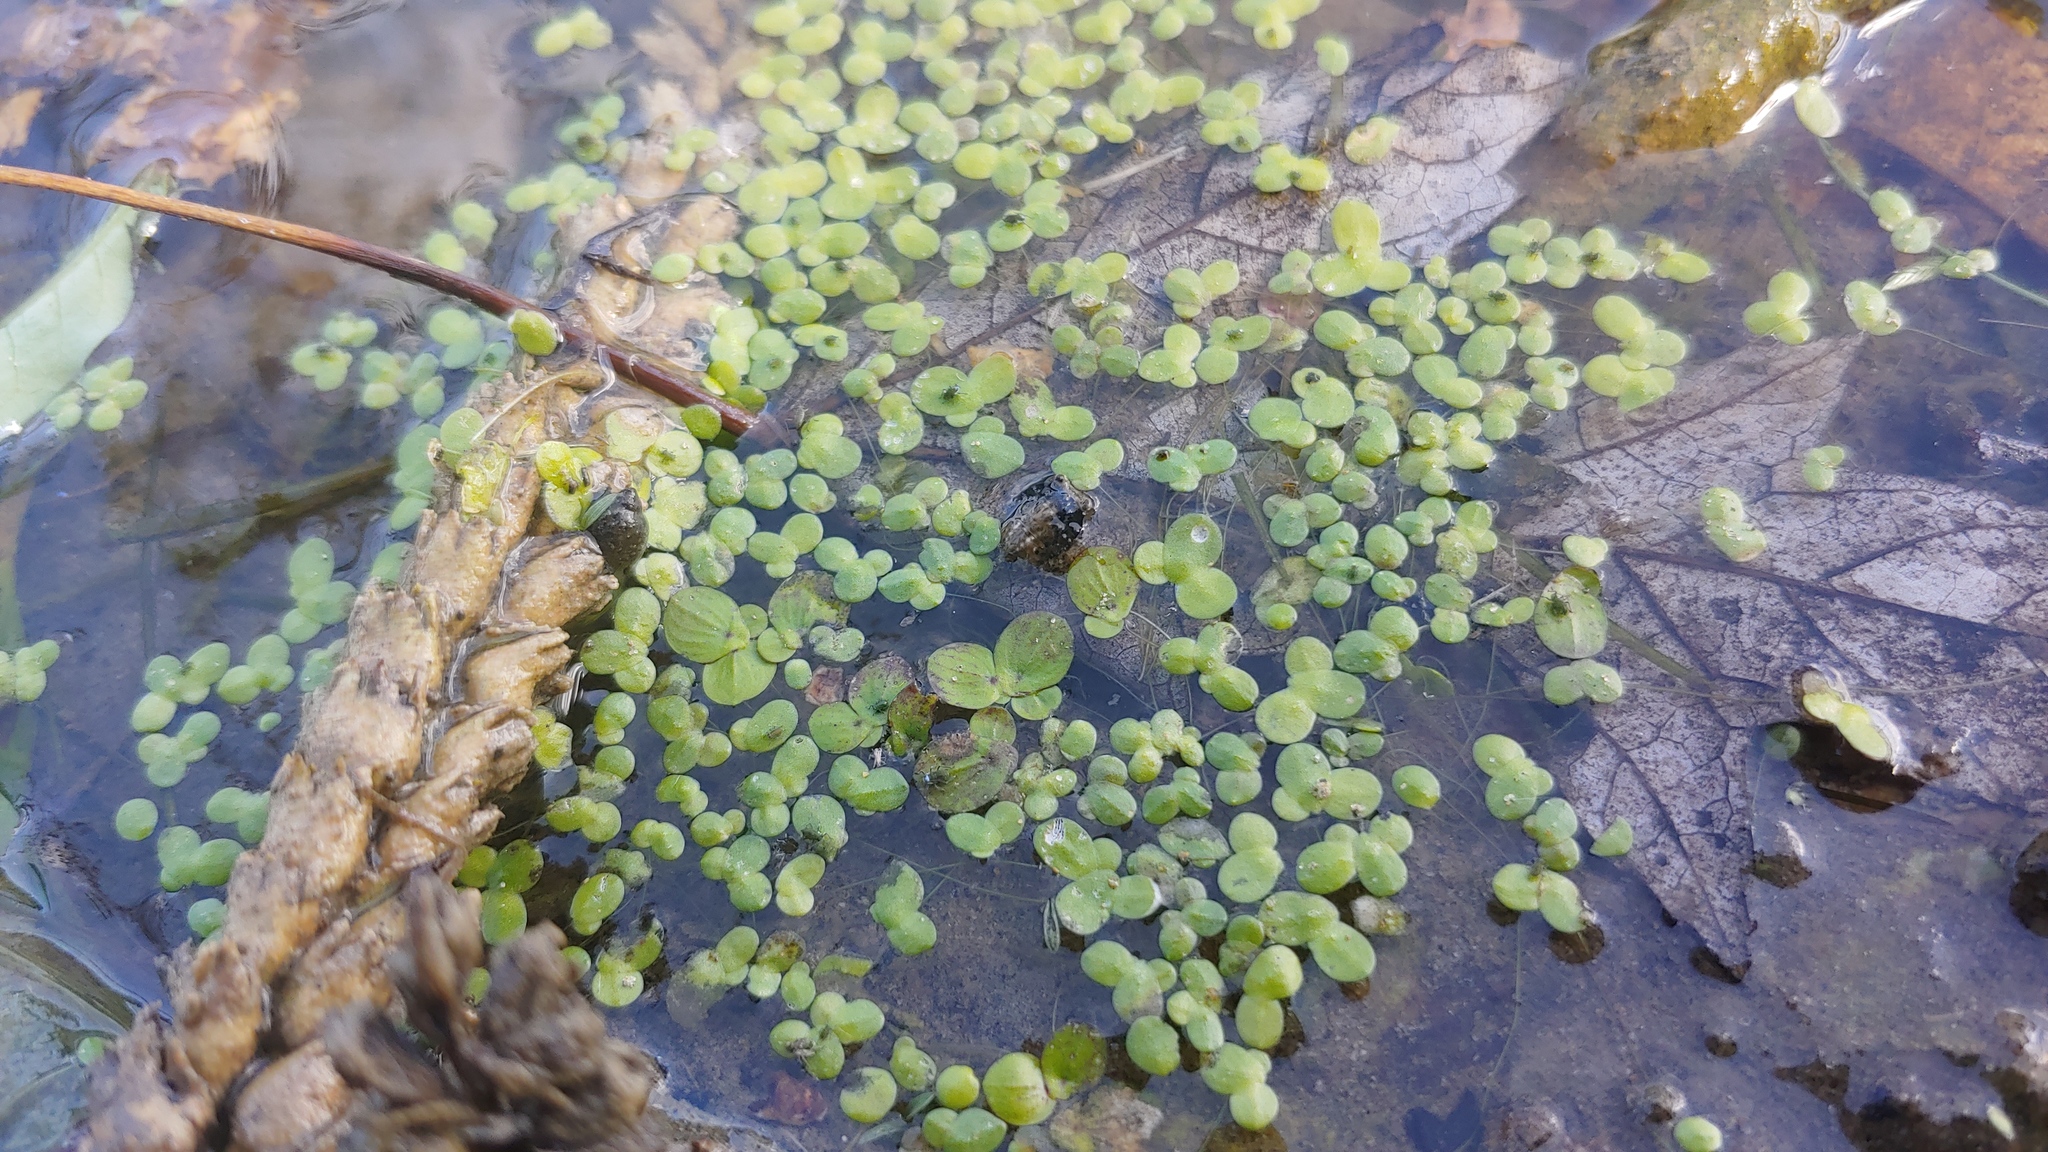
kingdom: Plantae
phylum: Tracheophyta
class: Liliopsida
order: Alismatales
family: Araceae
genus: Spirodela
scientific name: Spirodela polyrhiza
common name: Great duckweed
